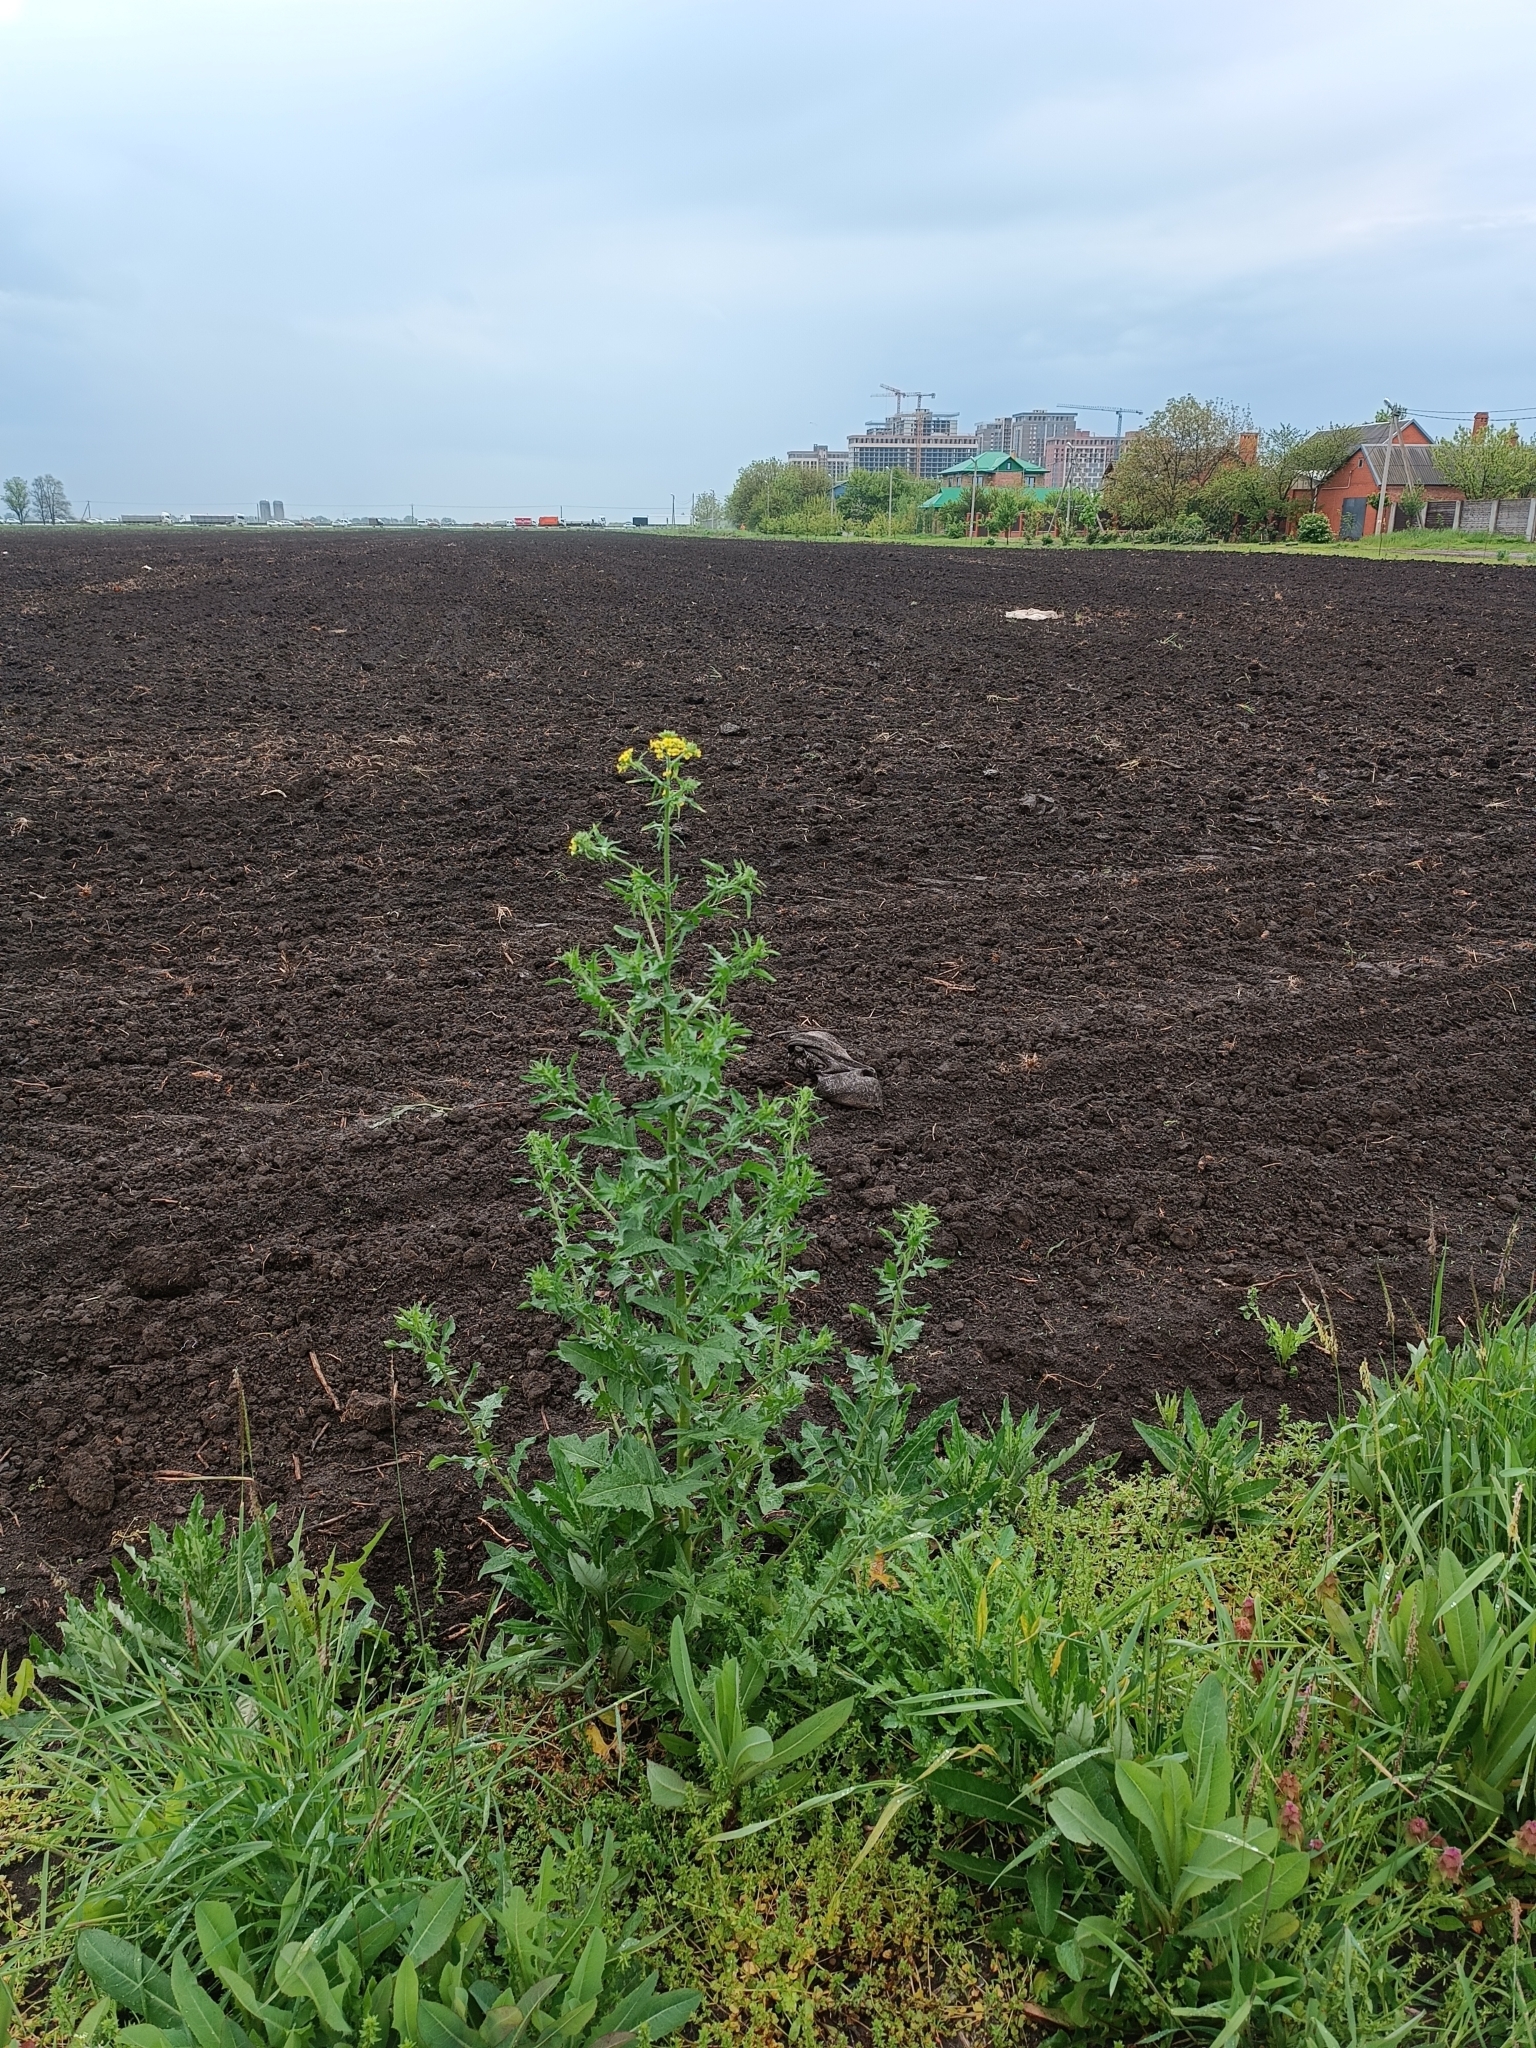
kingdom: Plantae
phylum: Tracheophyta
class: Magnoliopsida
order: Brassicales
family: Brassicaceae
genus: Sisymbrium
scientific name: Sisymbrium loeselii
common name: False london-rocket
